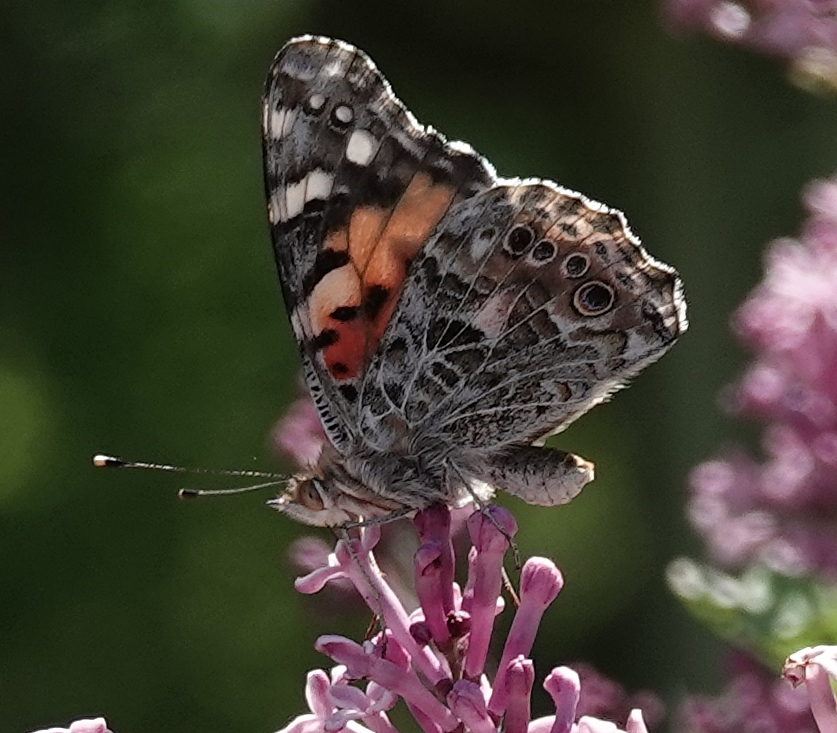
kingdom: Animalia
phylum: Arthropoda
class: Insecta
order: Lepidoptera
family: Nymphalidae
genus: Vanessa
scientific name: Vanessa cardui
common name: Painted lady
